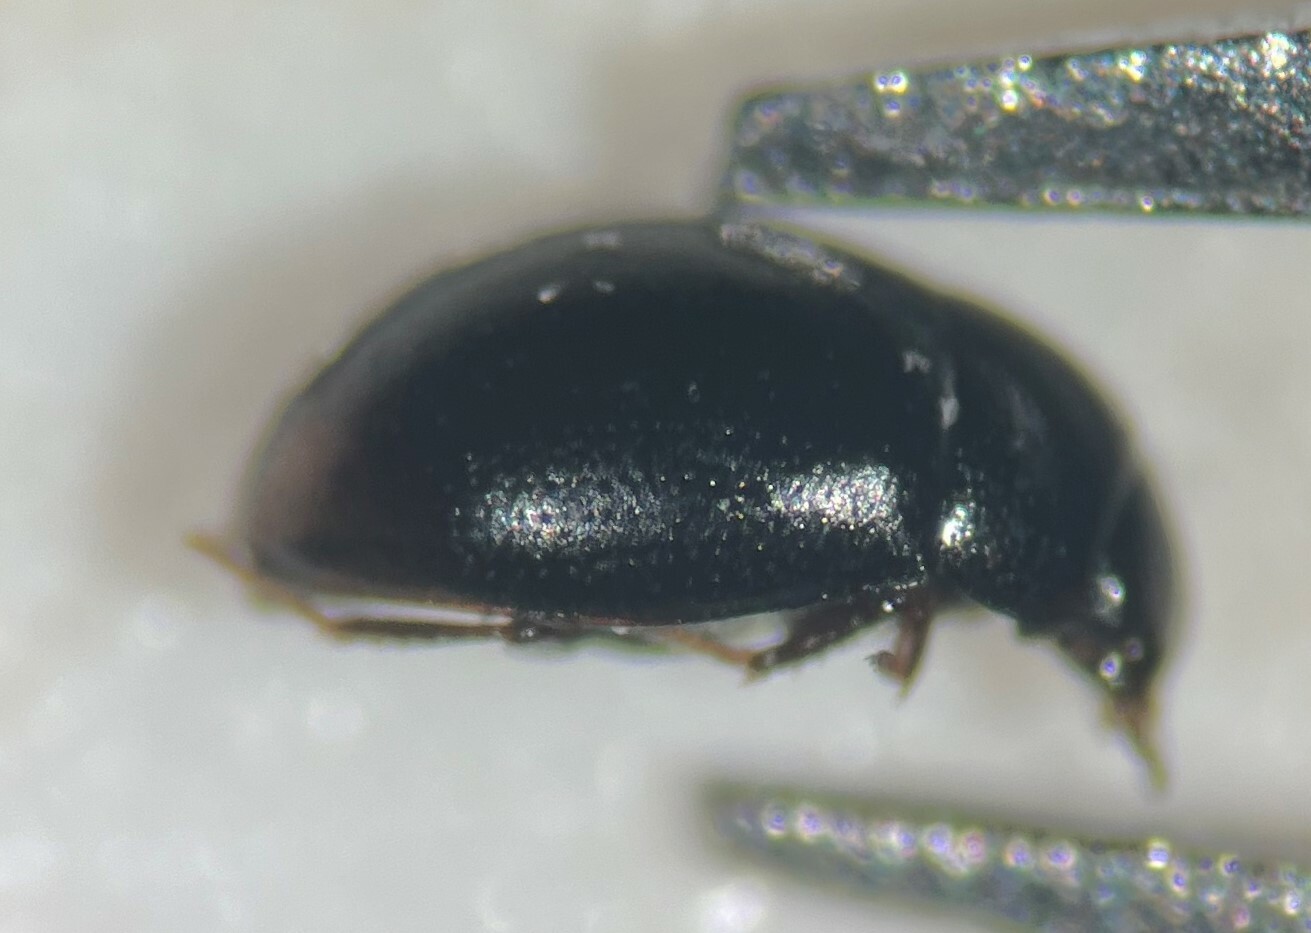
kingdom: Animalia
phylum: Arthropoda
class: Insecta
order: Coleoptera
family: Hydrophilidae
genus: Cercyon
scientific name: Cercyon herceus
